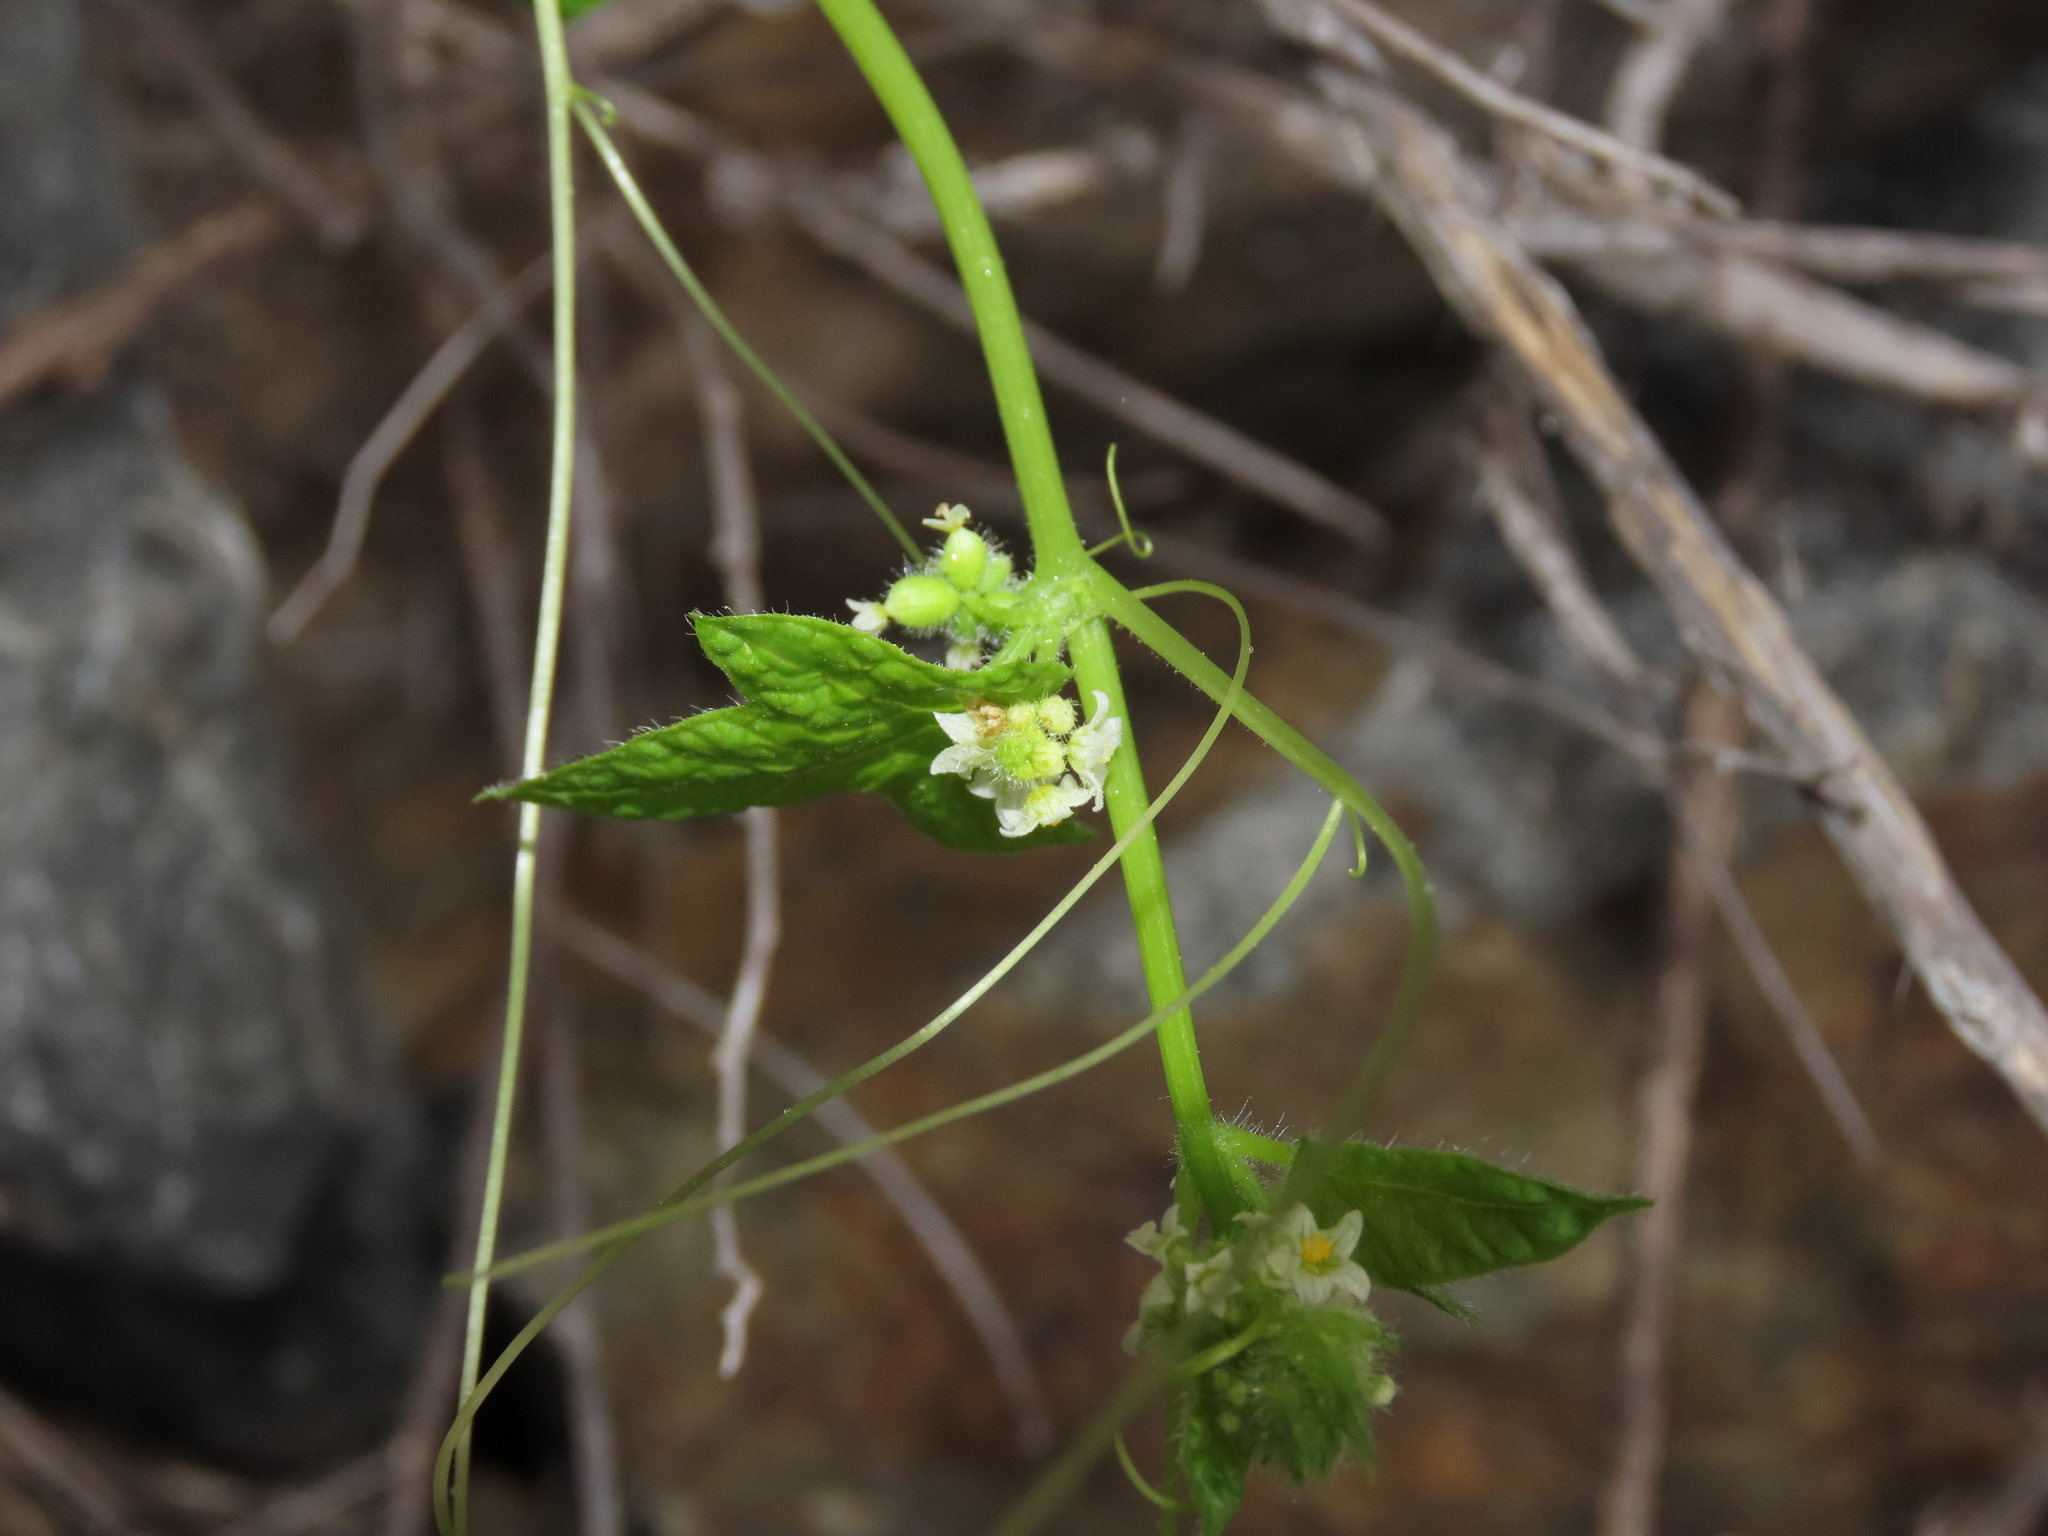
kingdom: Plantae
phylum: Tracheophyta
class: Magnoliopsida
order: Cucurbitales
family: Cucurbitaceae
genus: Sicyos
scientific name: Sicyos baderoa
